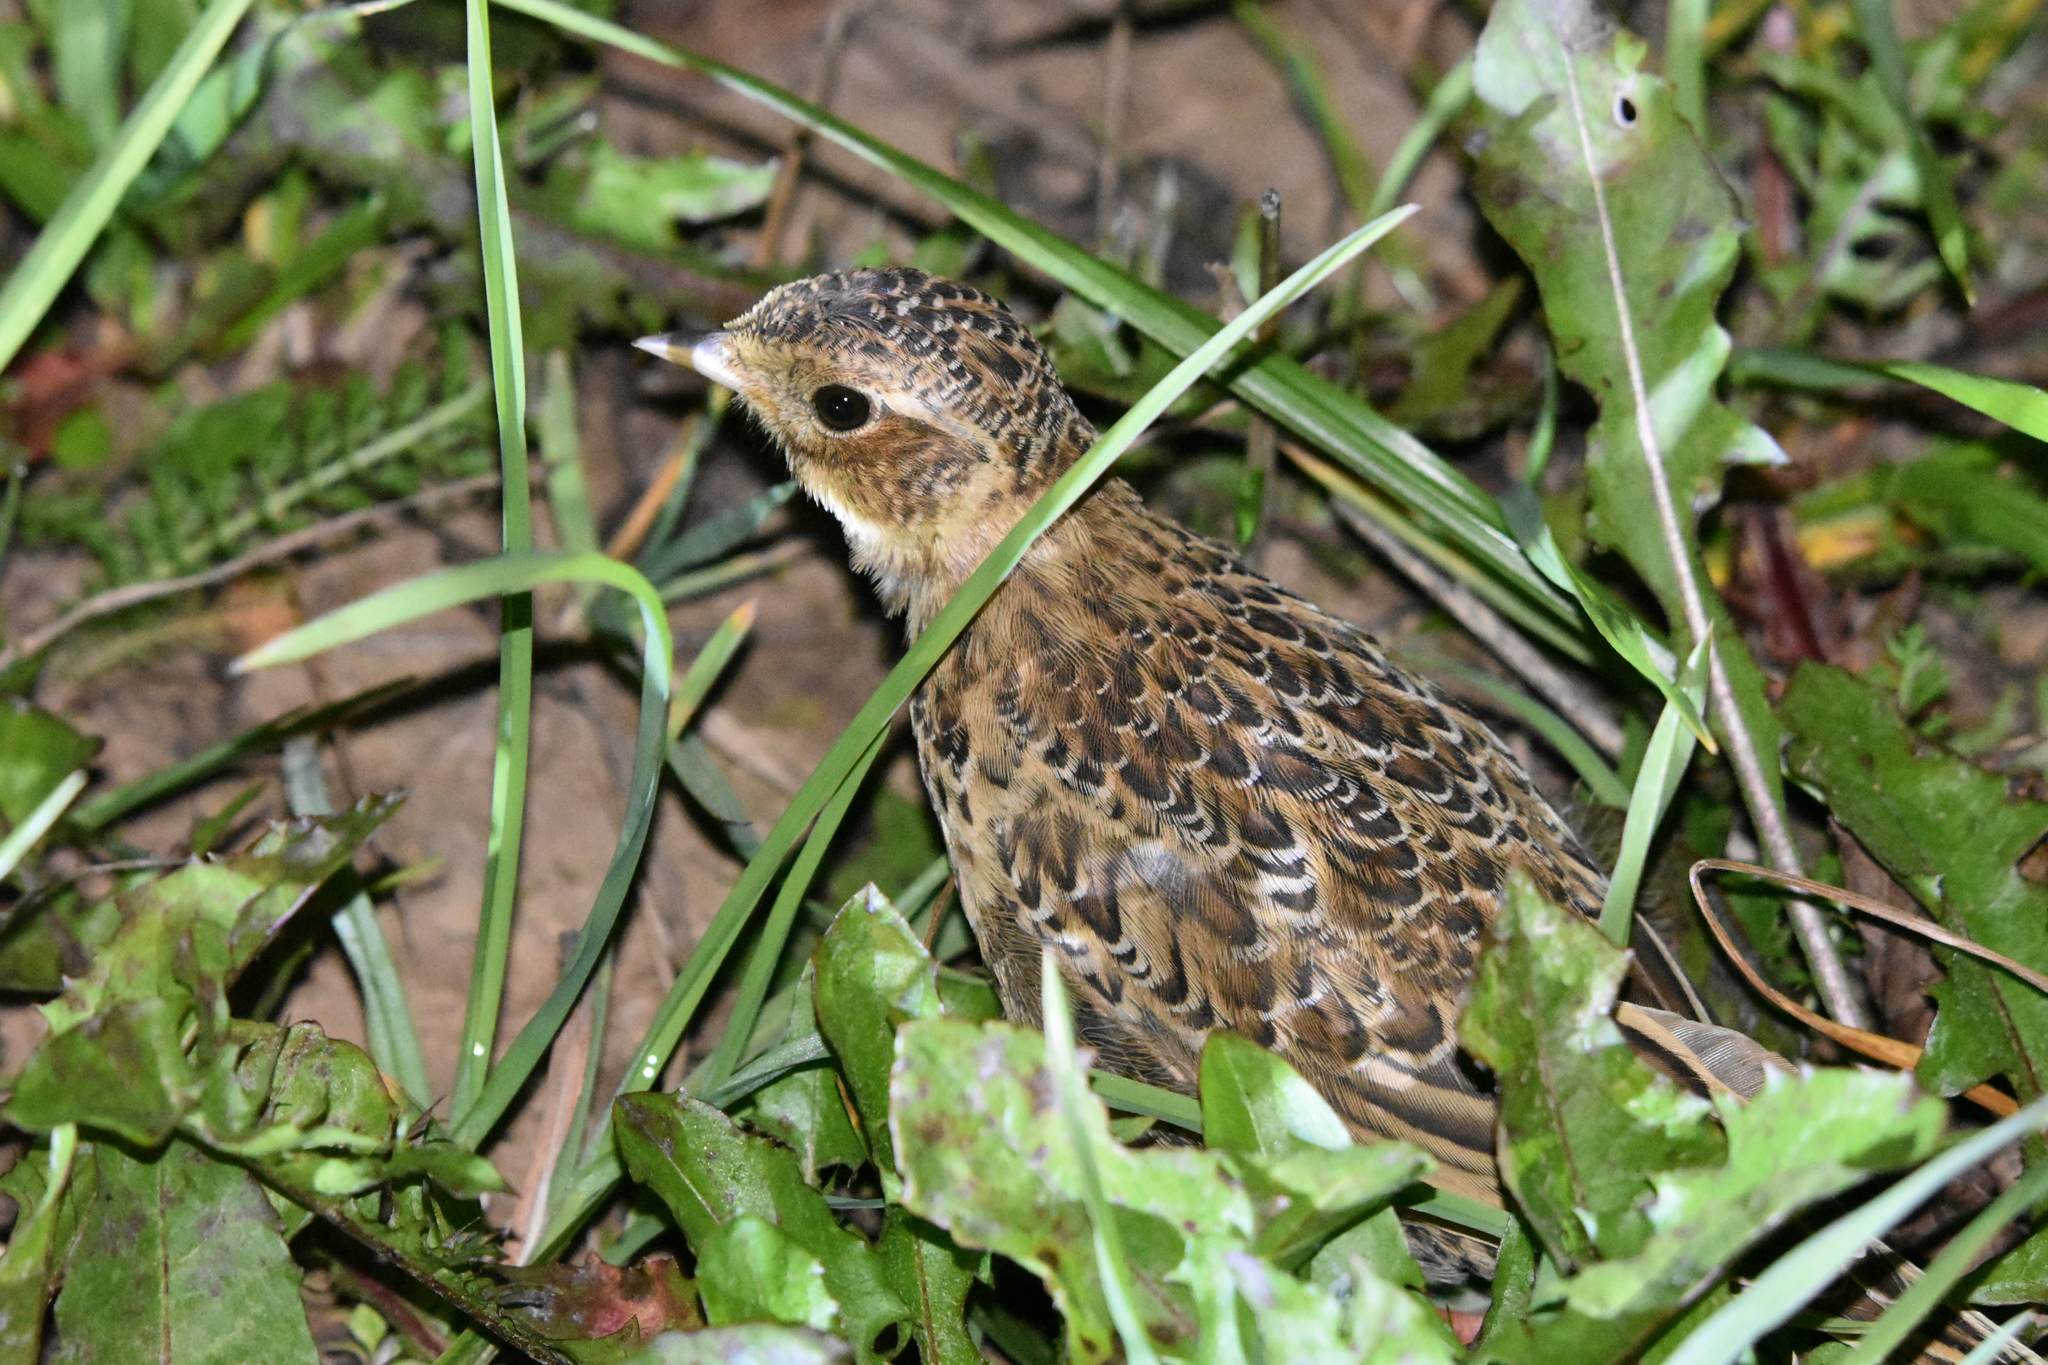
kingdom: Animalia
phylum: Chordata
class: Aves
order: Passeriformes
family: Alaudidae
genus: Alauda
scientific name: Alauda arvensis
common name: Eurasian skylark
